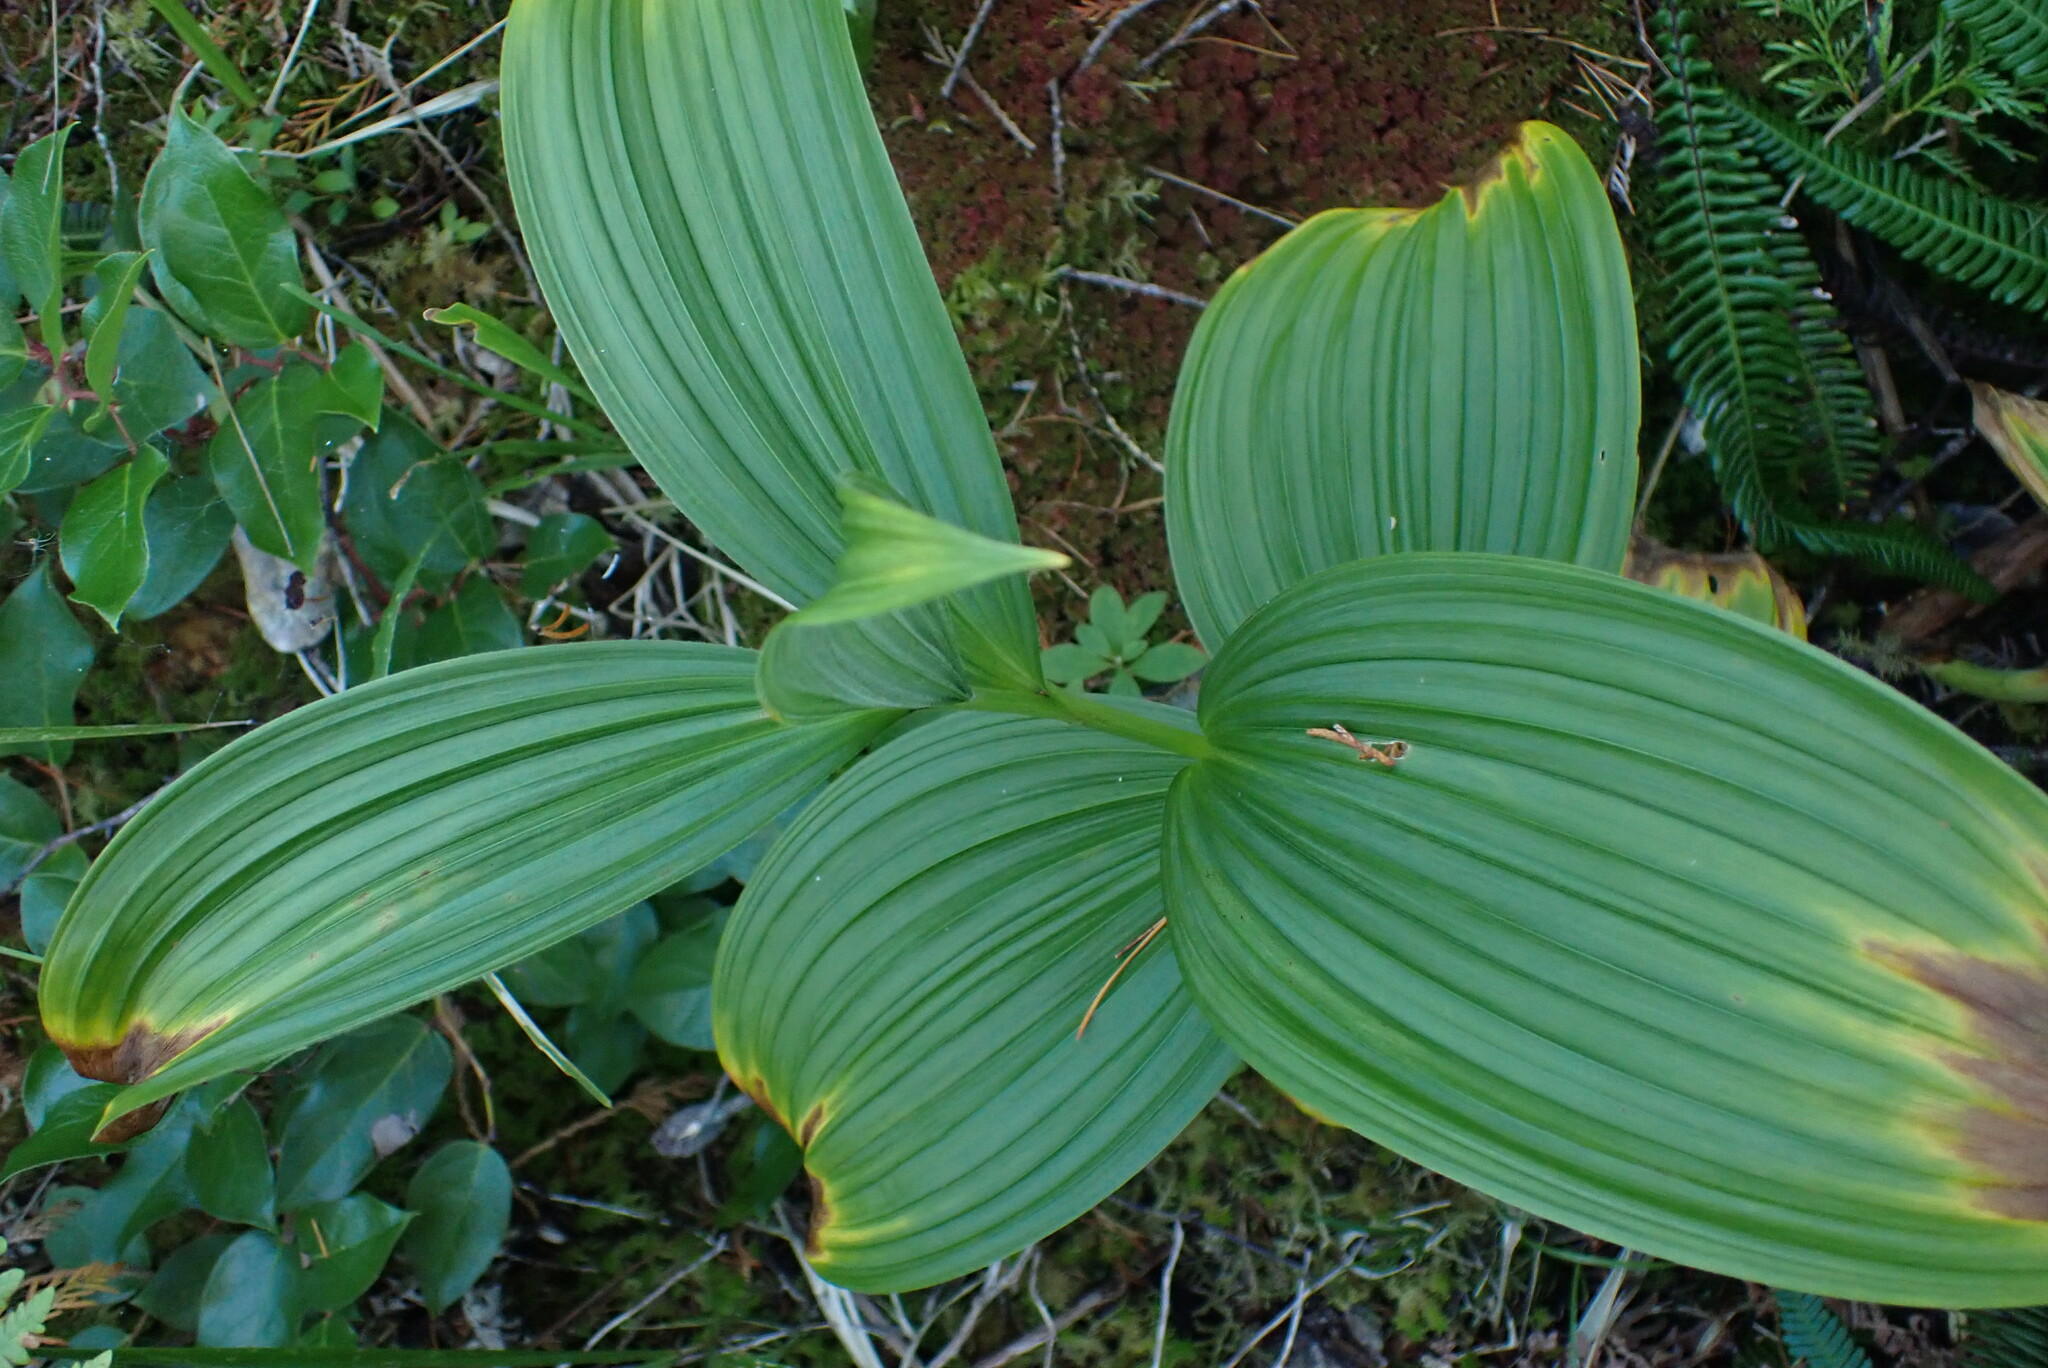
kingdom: Plantae
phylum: Tracheophyta
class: Liliopsida
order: Liliales
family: Melanthiaceae
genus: Veratrum
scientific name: Veratrum viride
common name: American false hellebore
